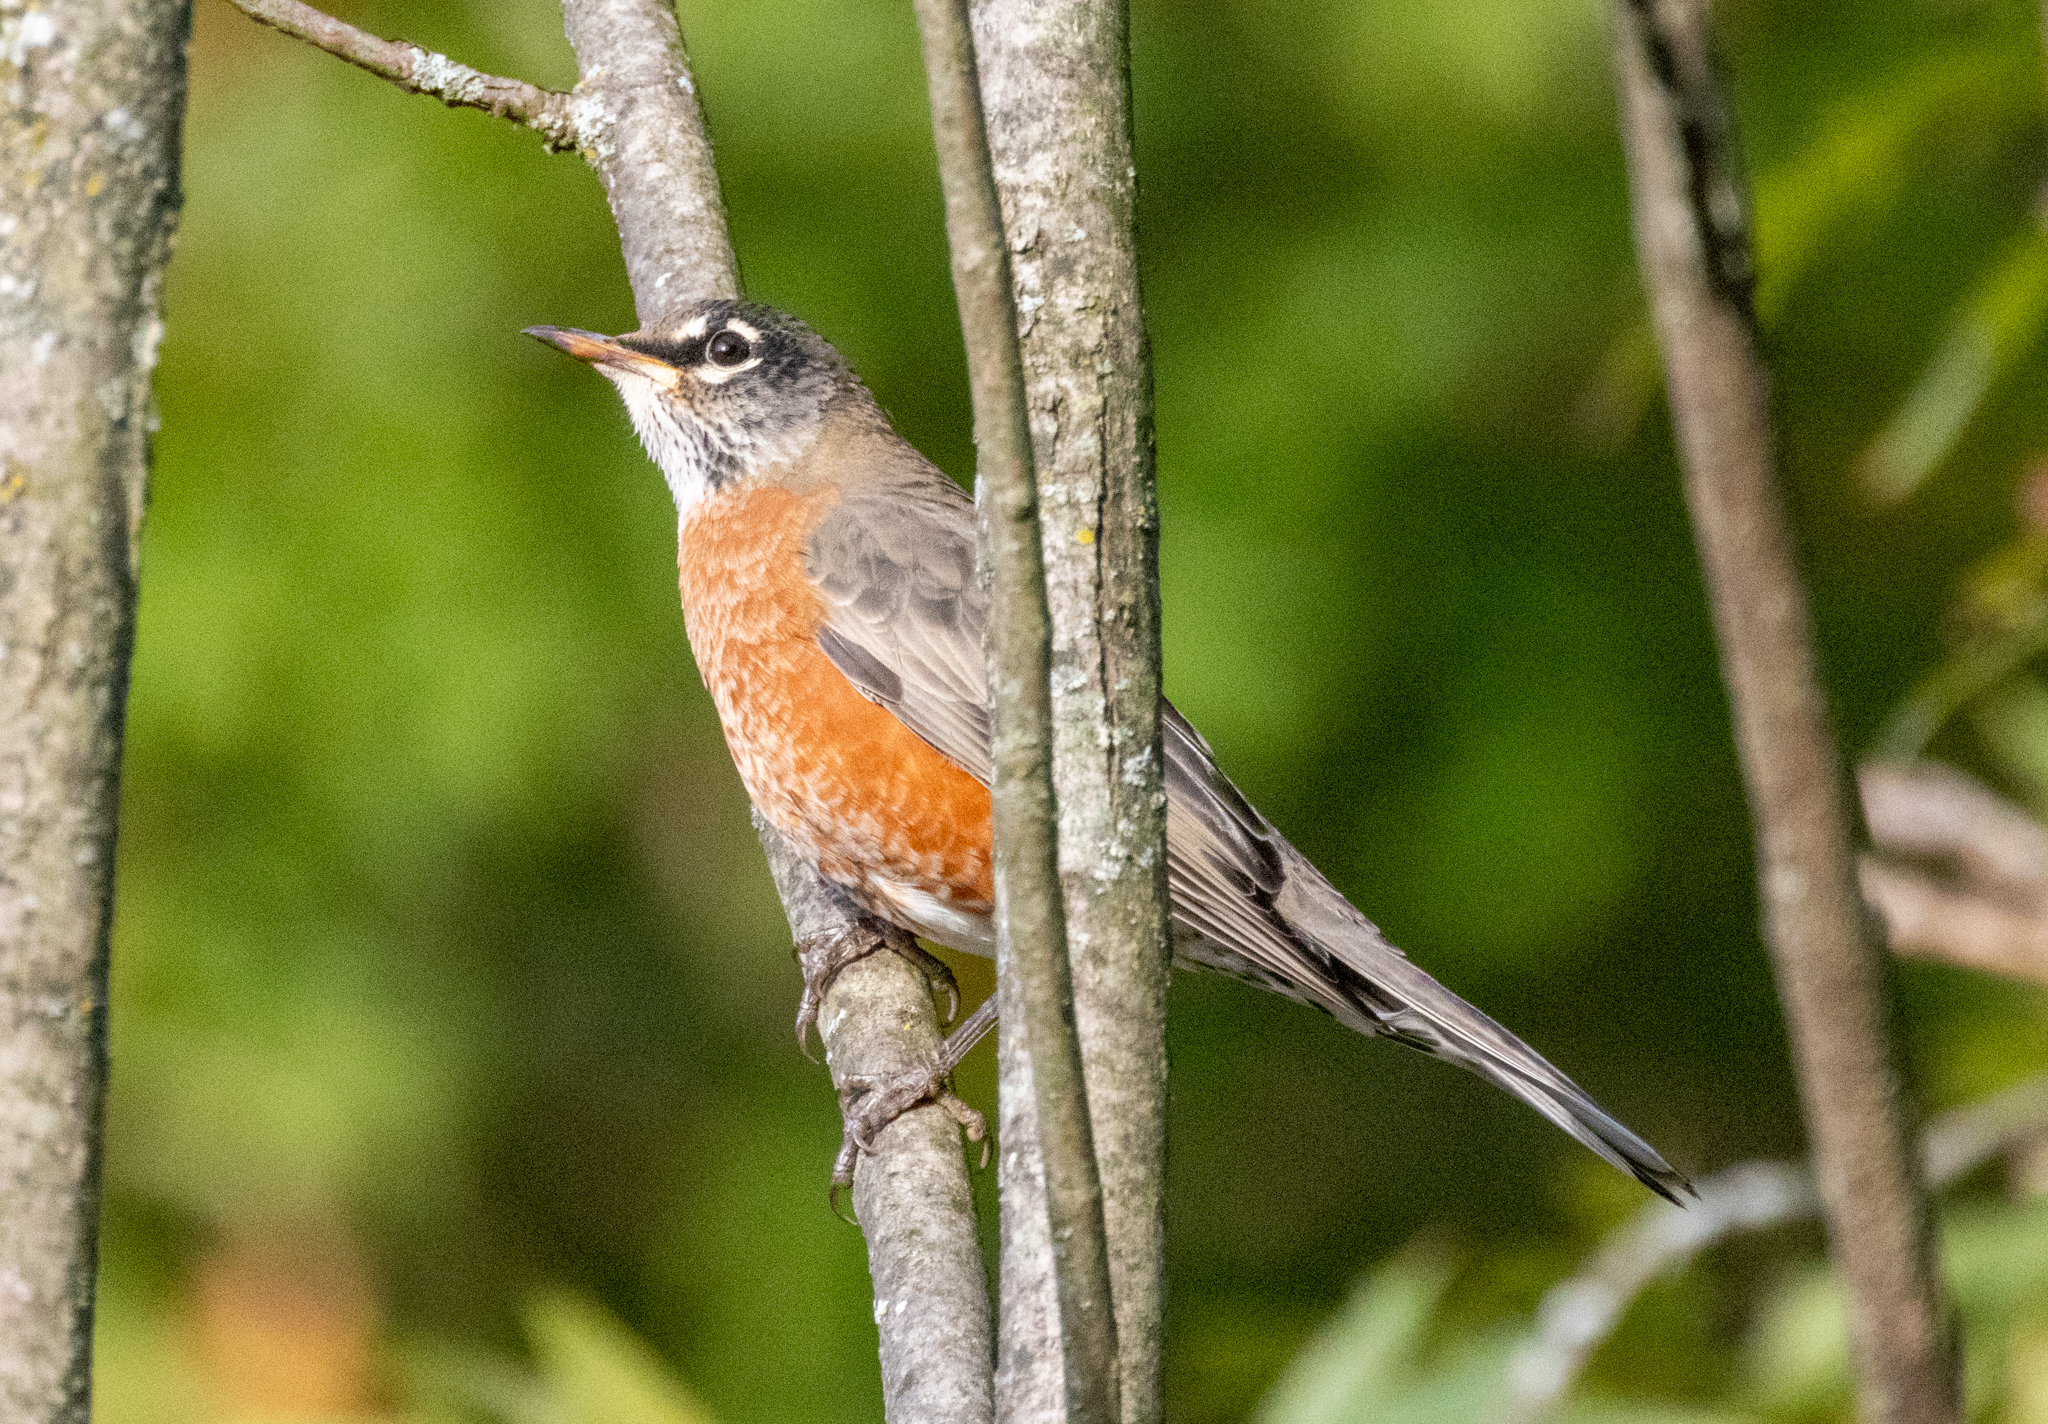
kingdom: Animalia
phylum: Chordata
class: Aves
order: Passeriformes
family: Turdidae
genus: Turdus
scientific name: Turdus migratorius
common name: American robin
